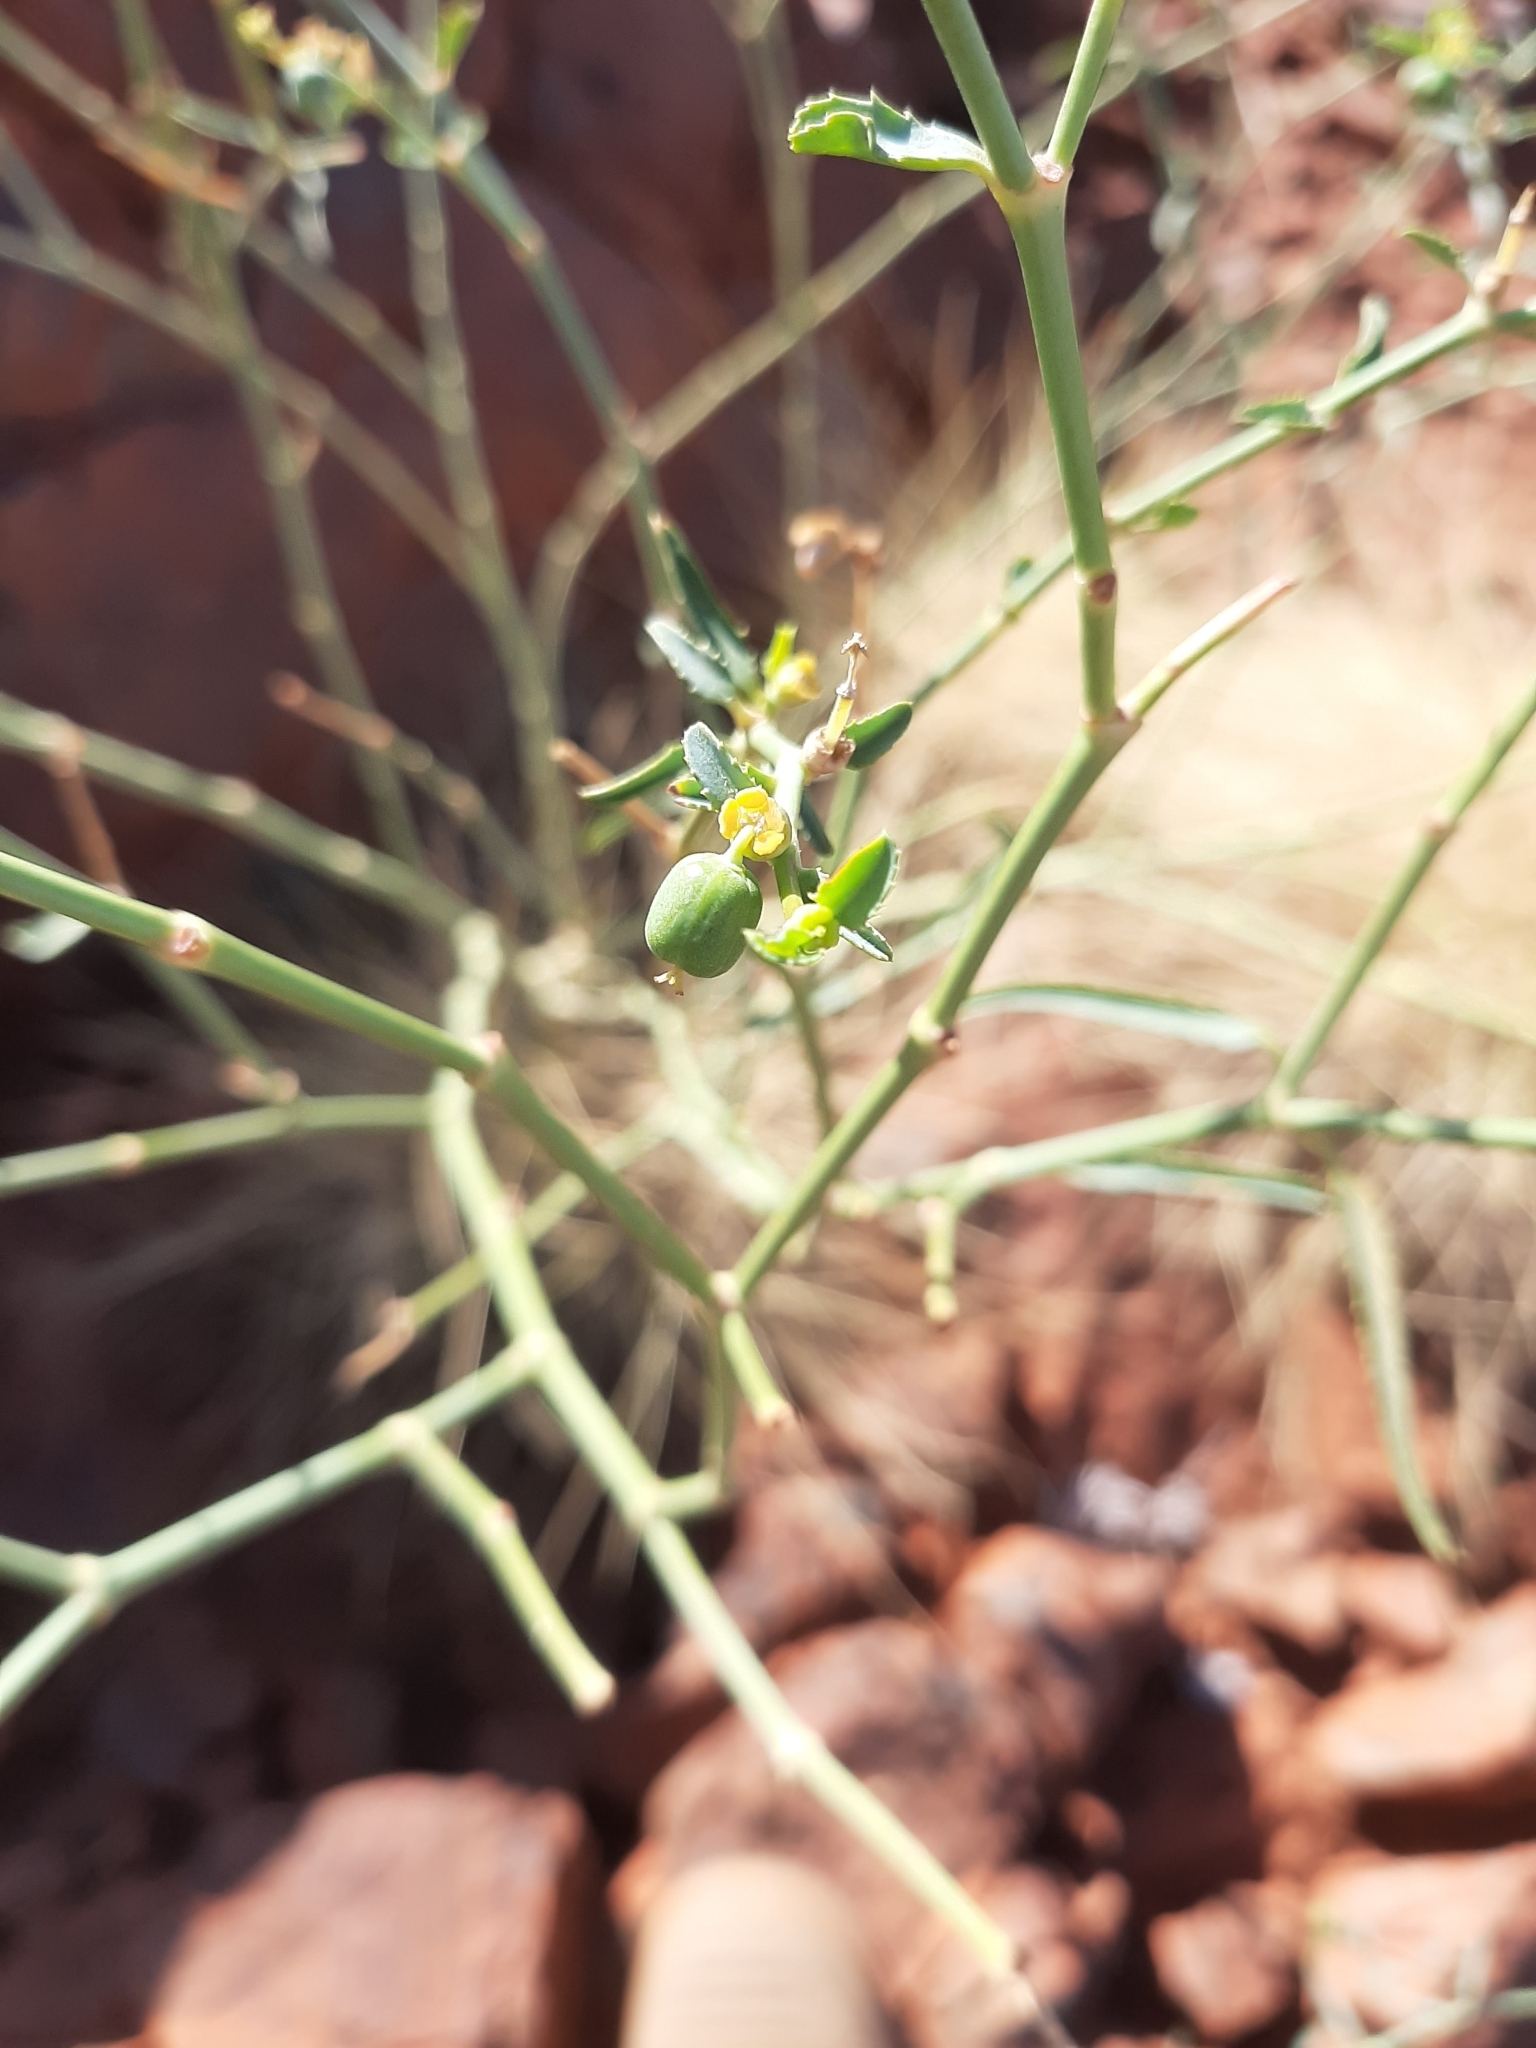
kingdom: Plantae
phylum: Tracheophyta
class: Magnoliopsida
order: Malpighiales
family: Euphorbiaceae
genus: Euphorbia
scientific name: Euphorbia tannensis
